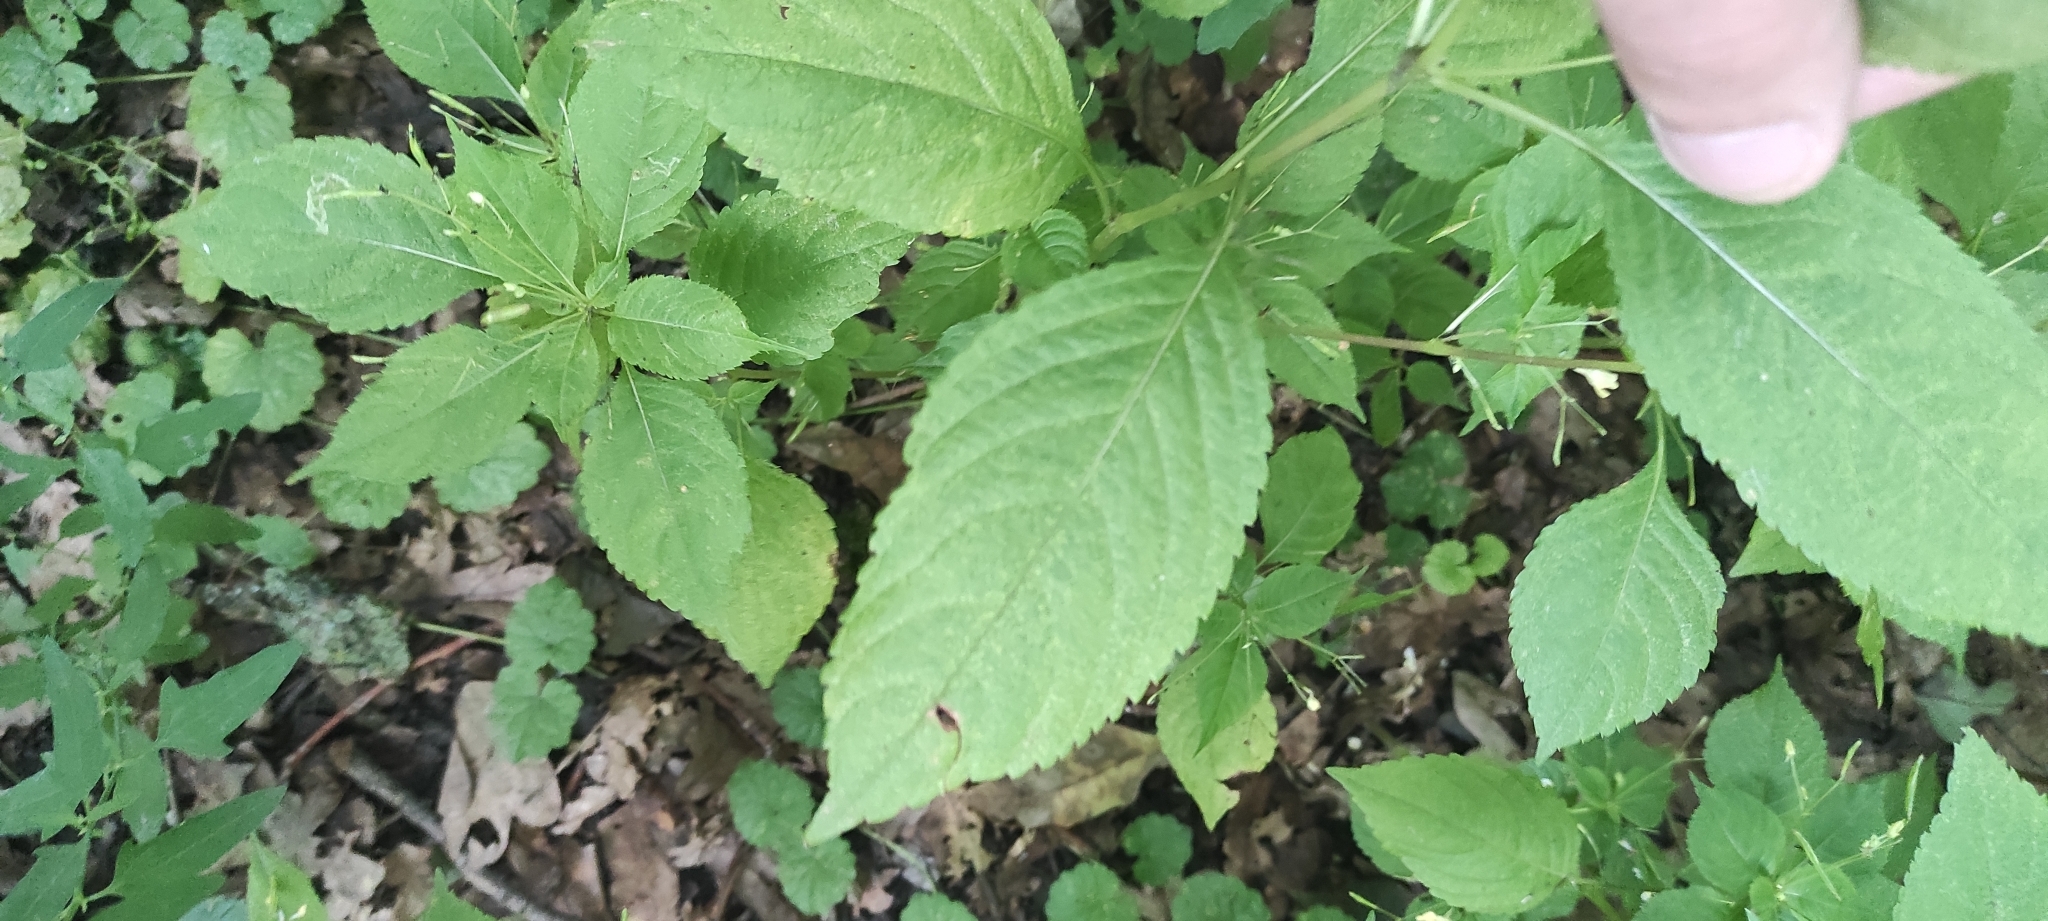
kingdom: Plantae
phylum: Tracheophyta
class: Magnoliopsida
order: Ericales
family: Balsaminaceae
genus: Impatiens
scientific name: Impatiens parviflora
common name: Small balsam
